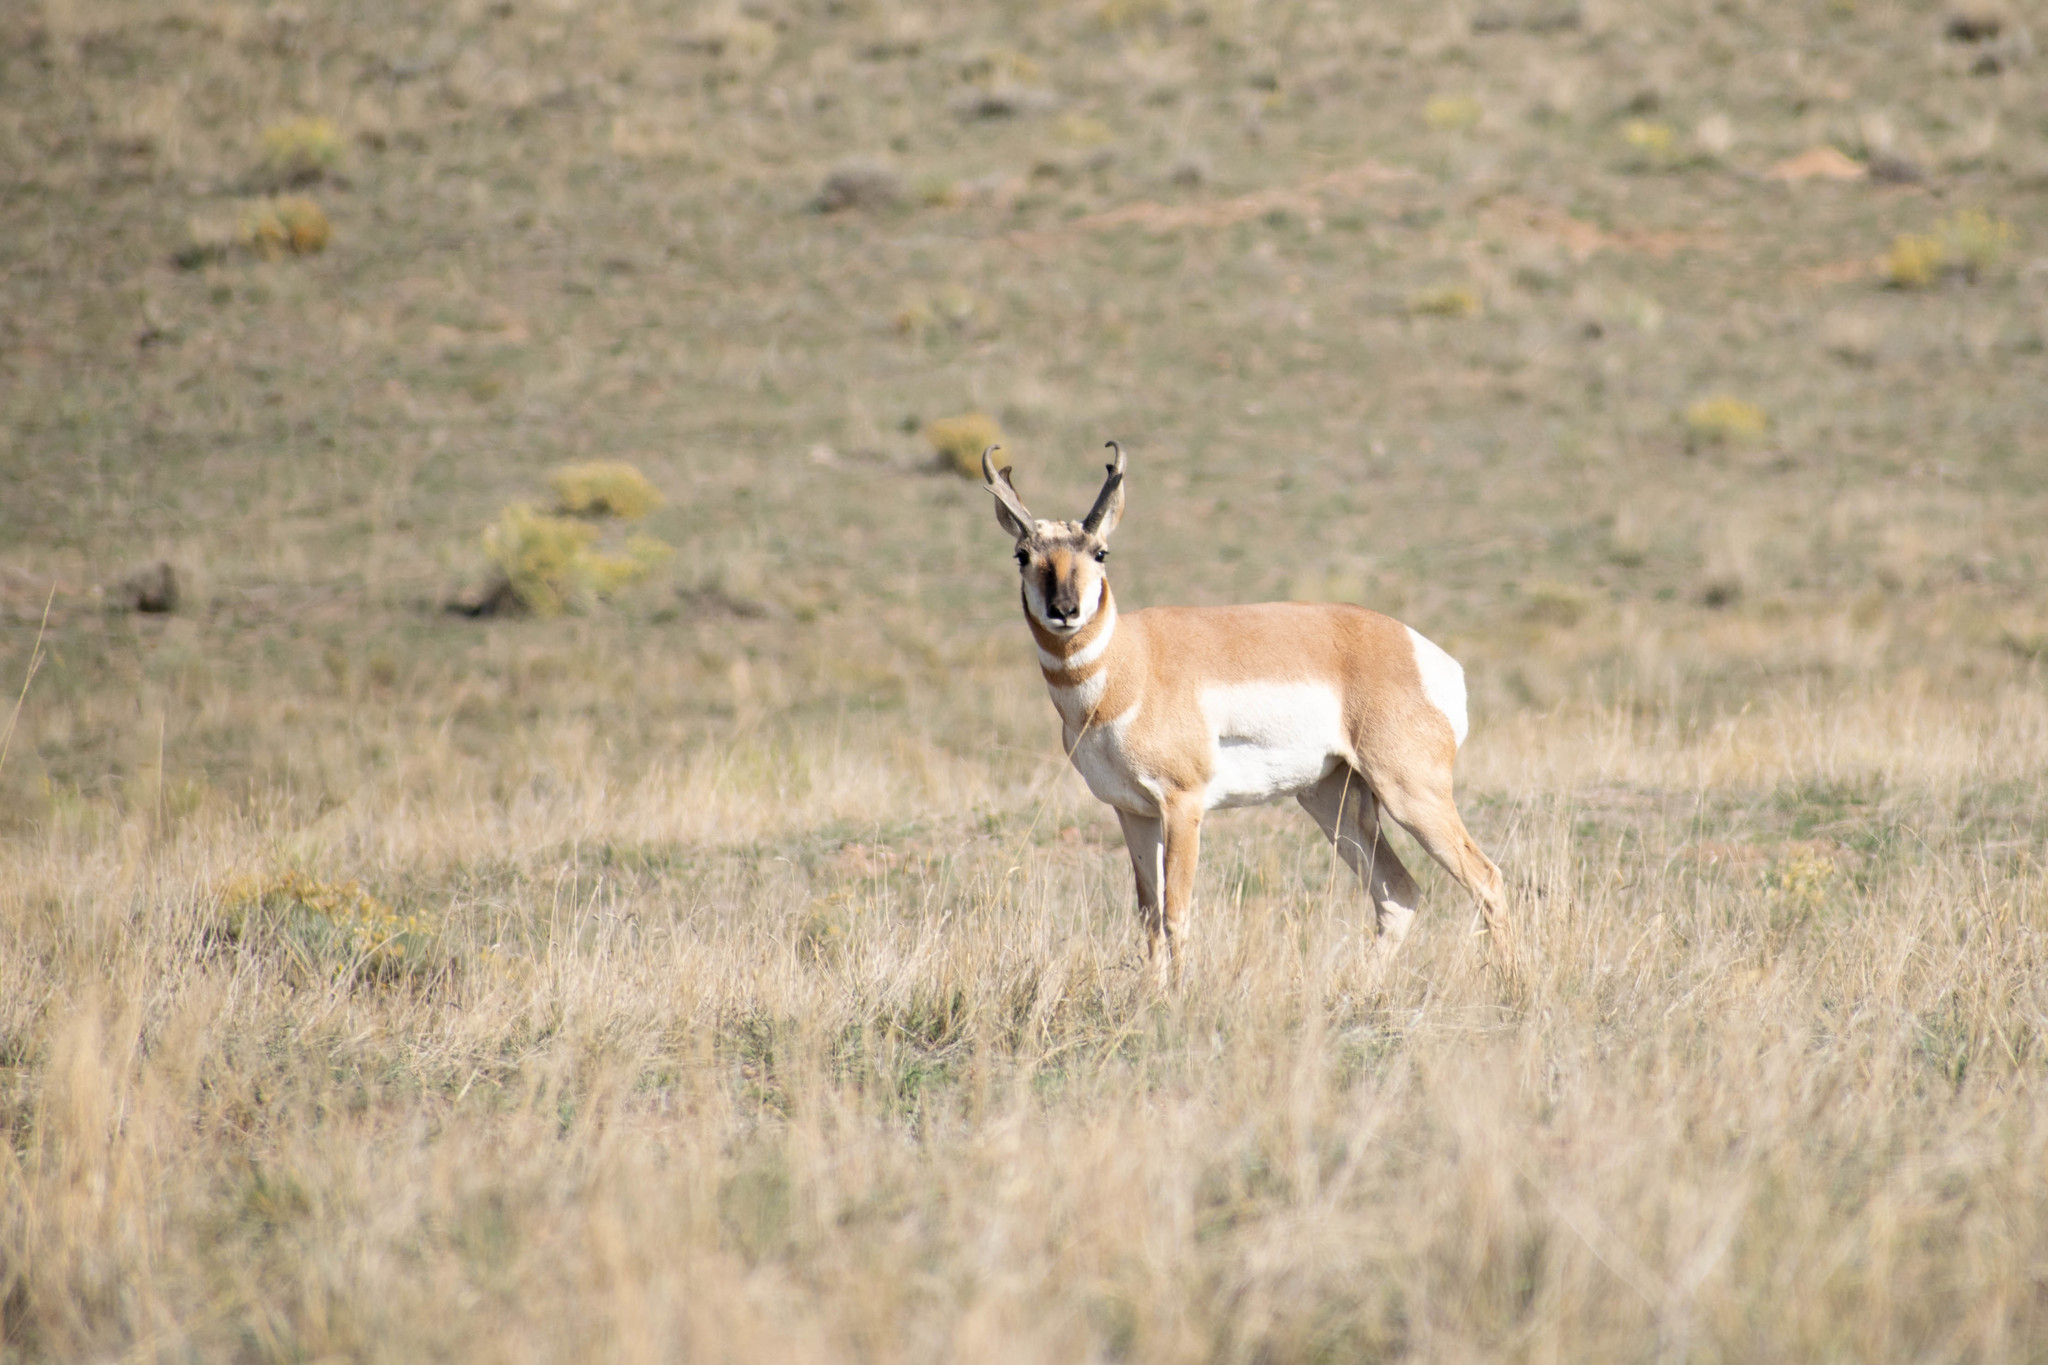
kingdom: Animalia
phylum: Chordata
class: Mammalia
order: Artiodactyla
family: Antilocapridae
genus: Antilocapra
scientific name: Antilocapra americana
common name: Pronghorn
